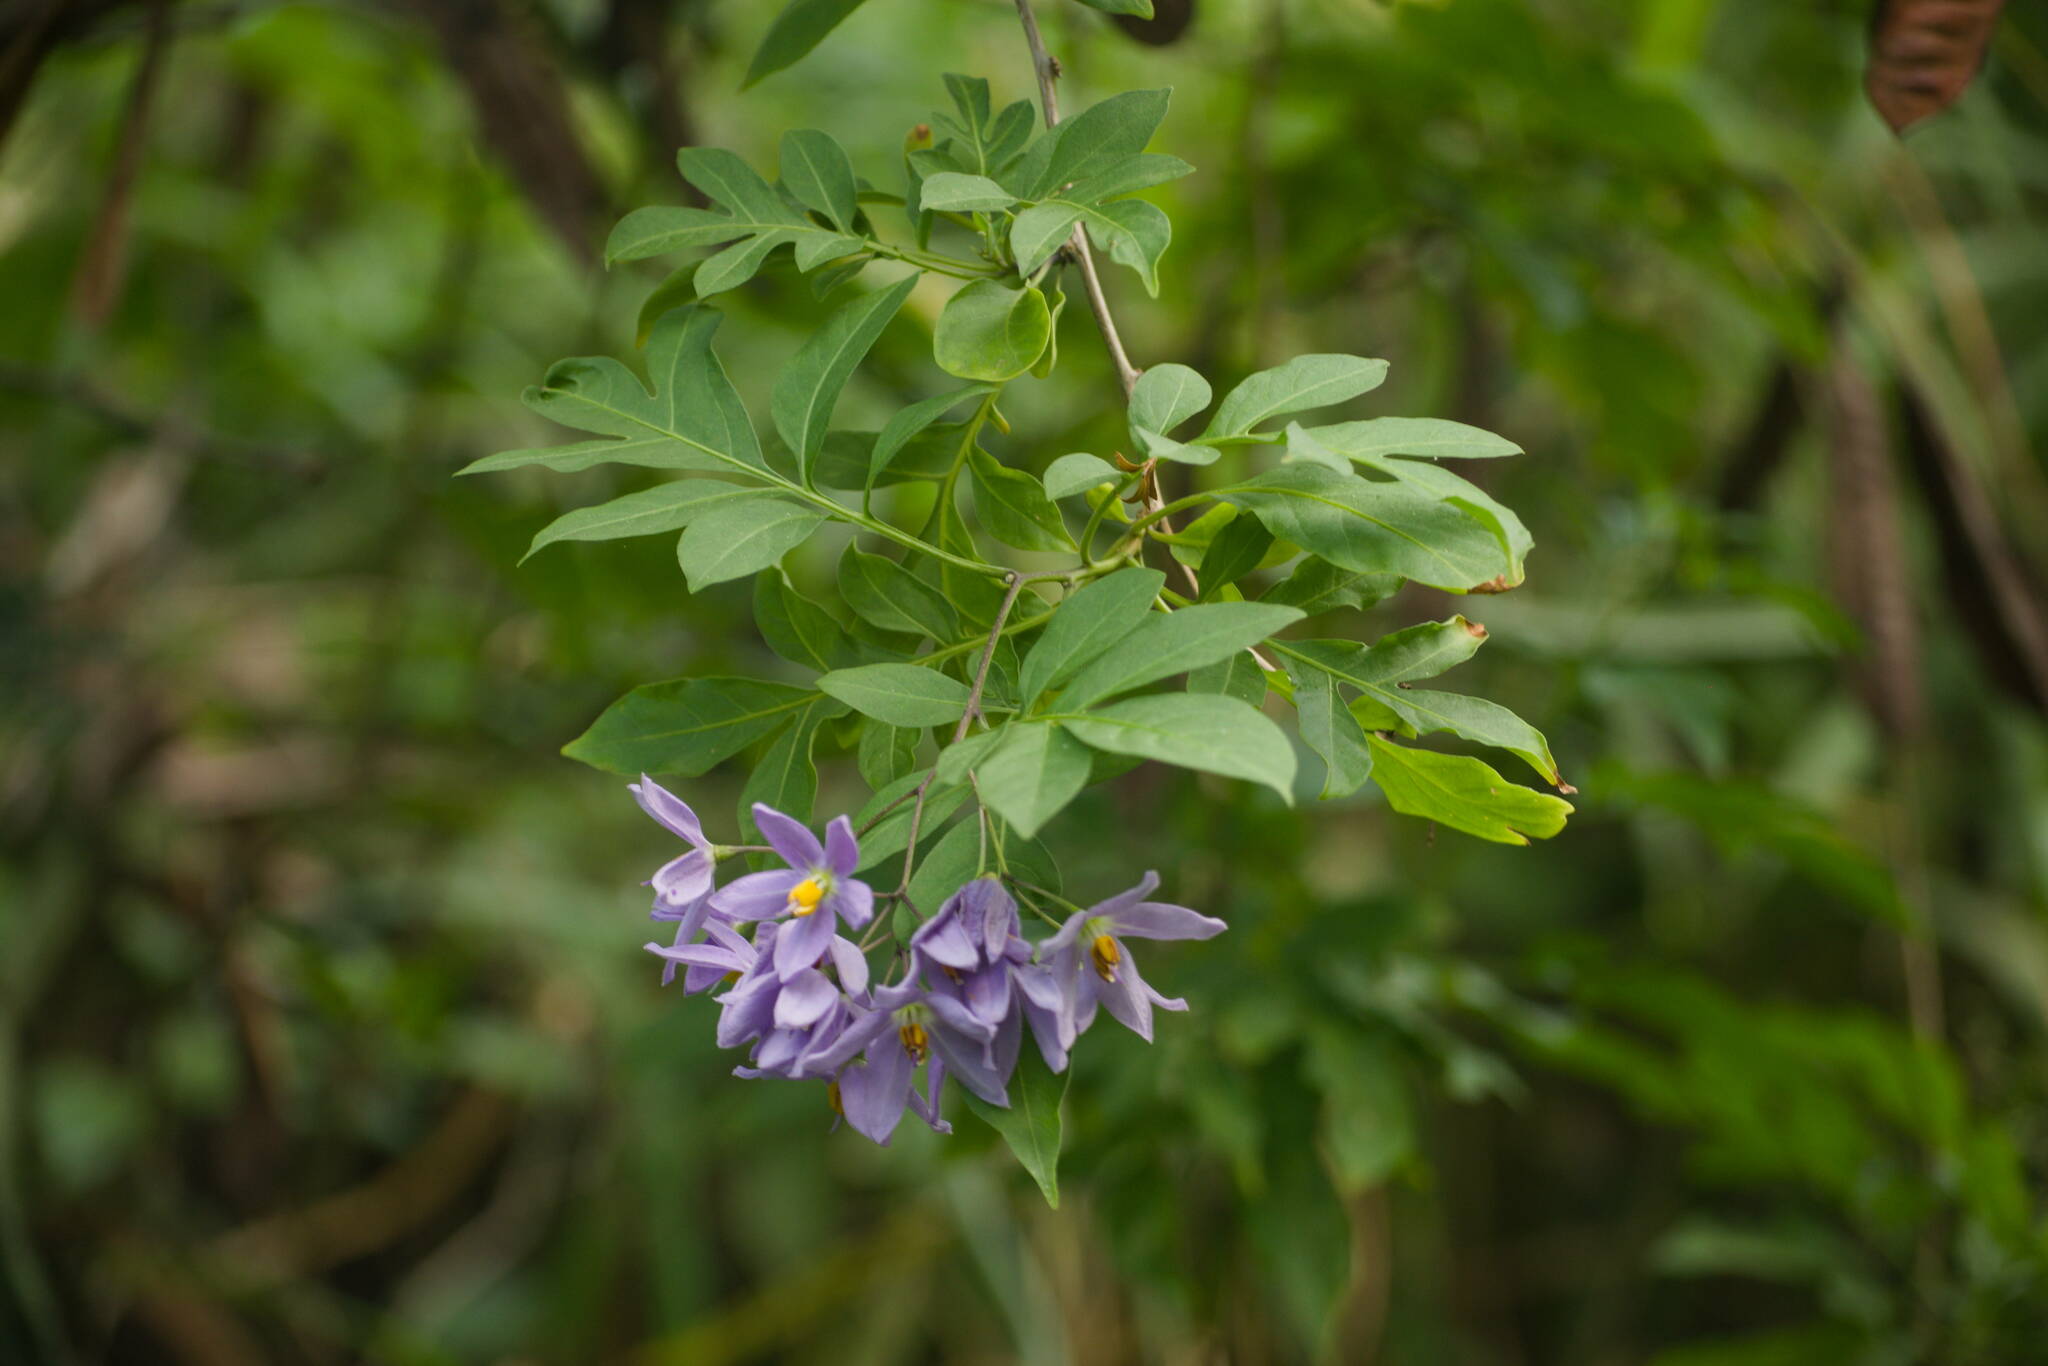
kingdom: Plantae
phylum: Tracheophyta
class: Magnoliopsida
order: Solanales
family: Solanaceae
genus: Solanum
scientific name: Solanum seaforthianum
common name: Brazilian nightshade
